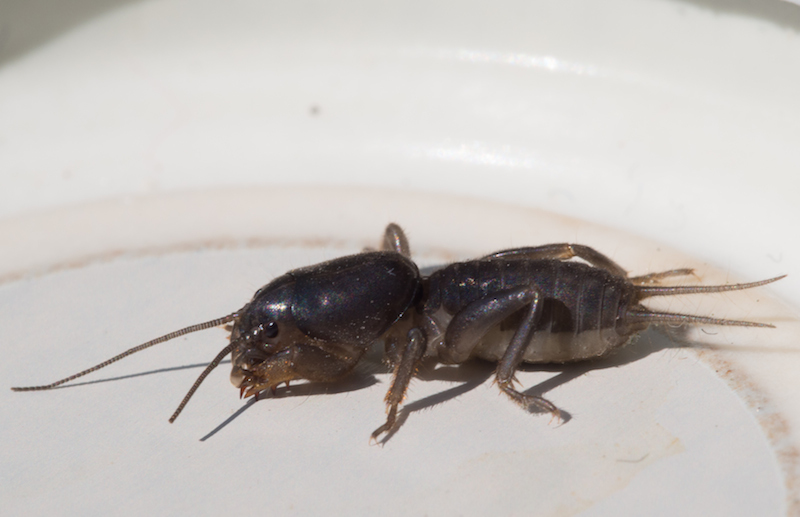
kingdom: Animalia
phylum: Arthropoda
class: Insecta
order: Orthoptera
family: Gryllotalpidae
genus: Gryllotalpa
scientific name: Gryllotalpa gryllotalpa
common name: European mole cricket
